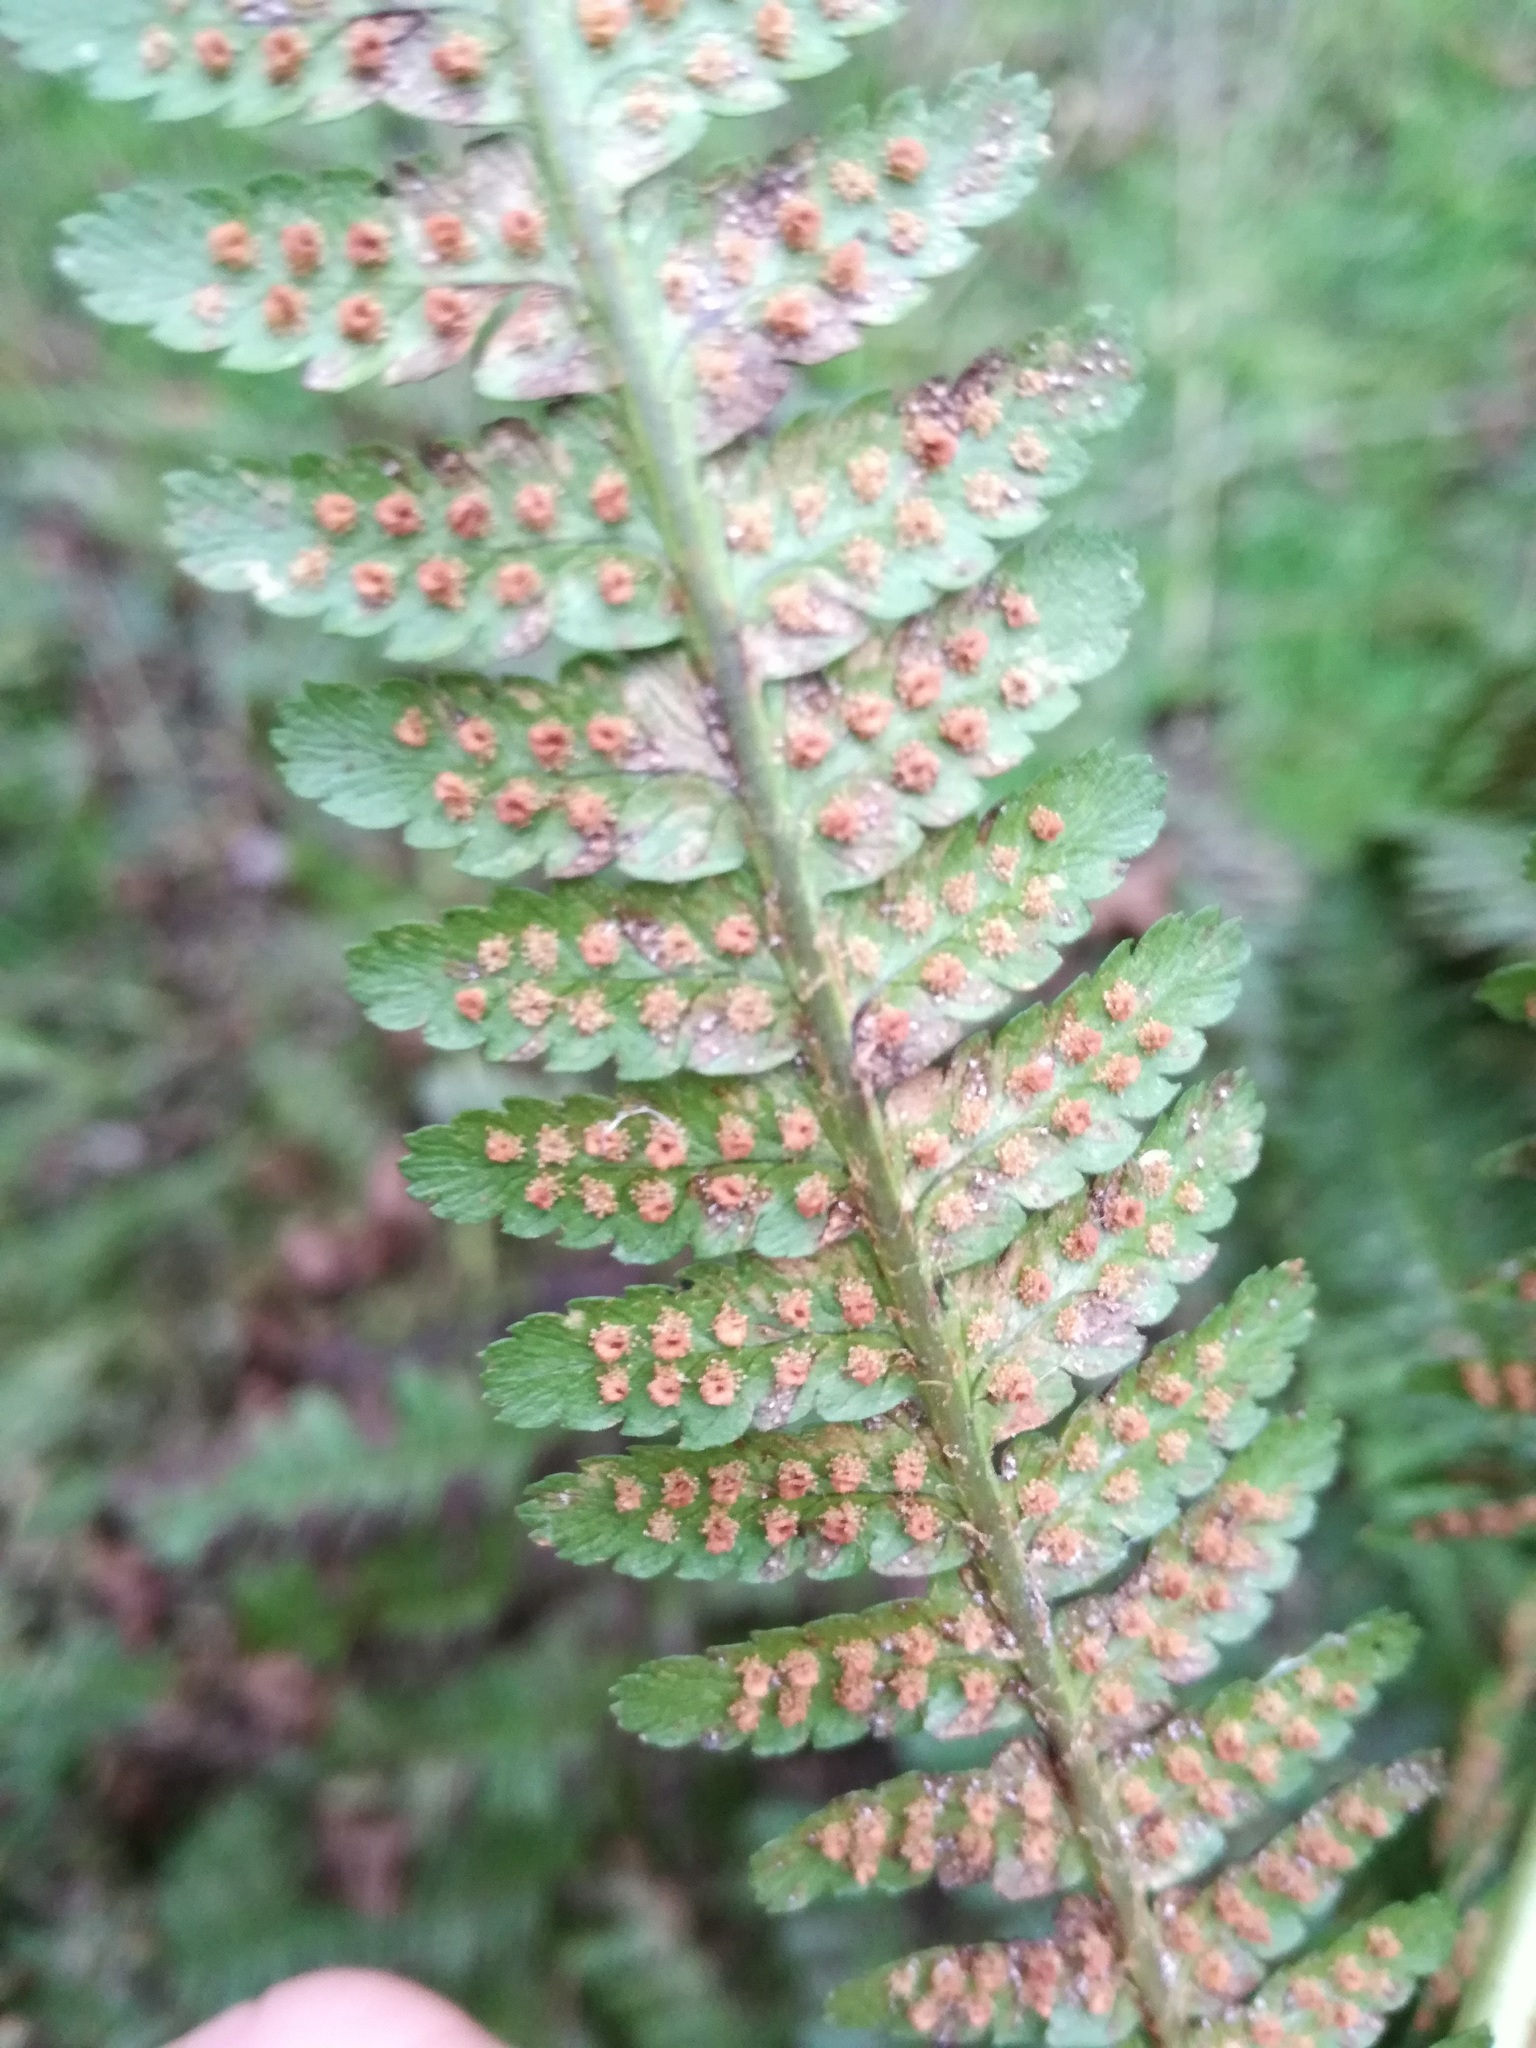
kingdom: Plantae
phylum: Tracheophyta
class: Polypodiopsida
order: Polypodiales
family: Dryopteridaceae
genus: Dryopteris
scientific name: Dryopteris filix-mas
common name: Male fern
